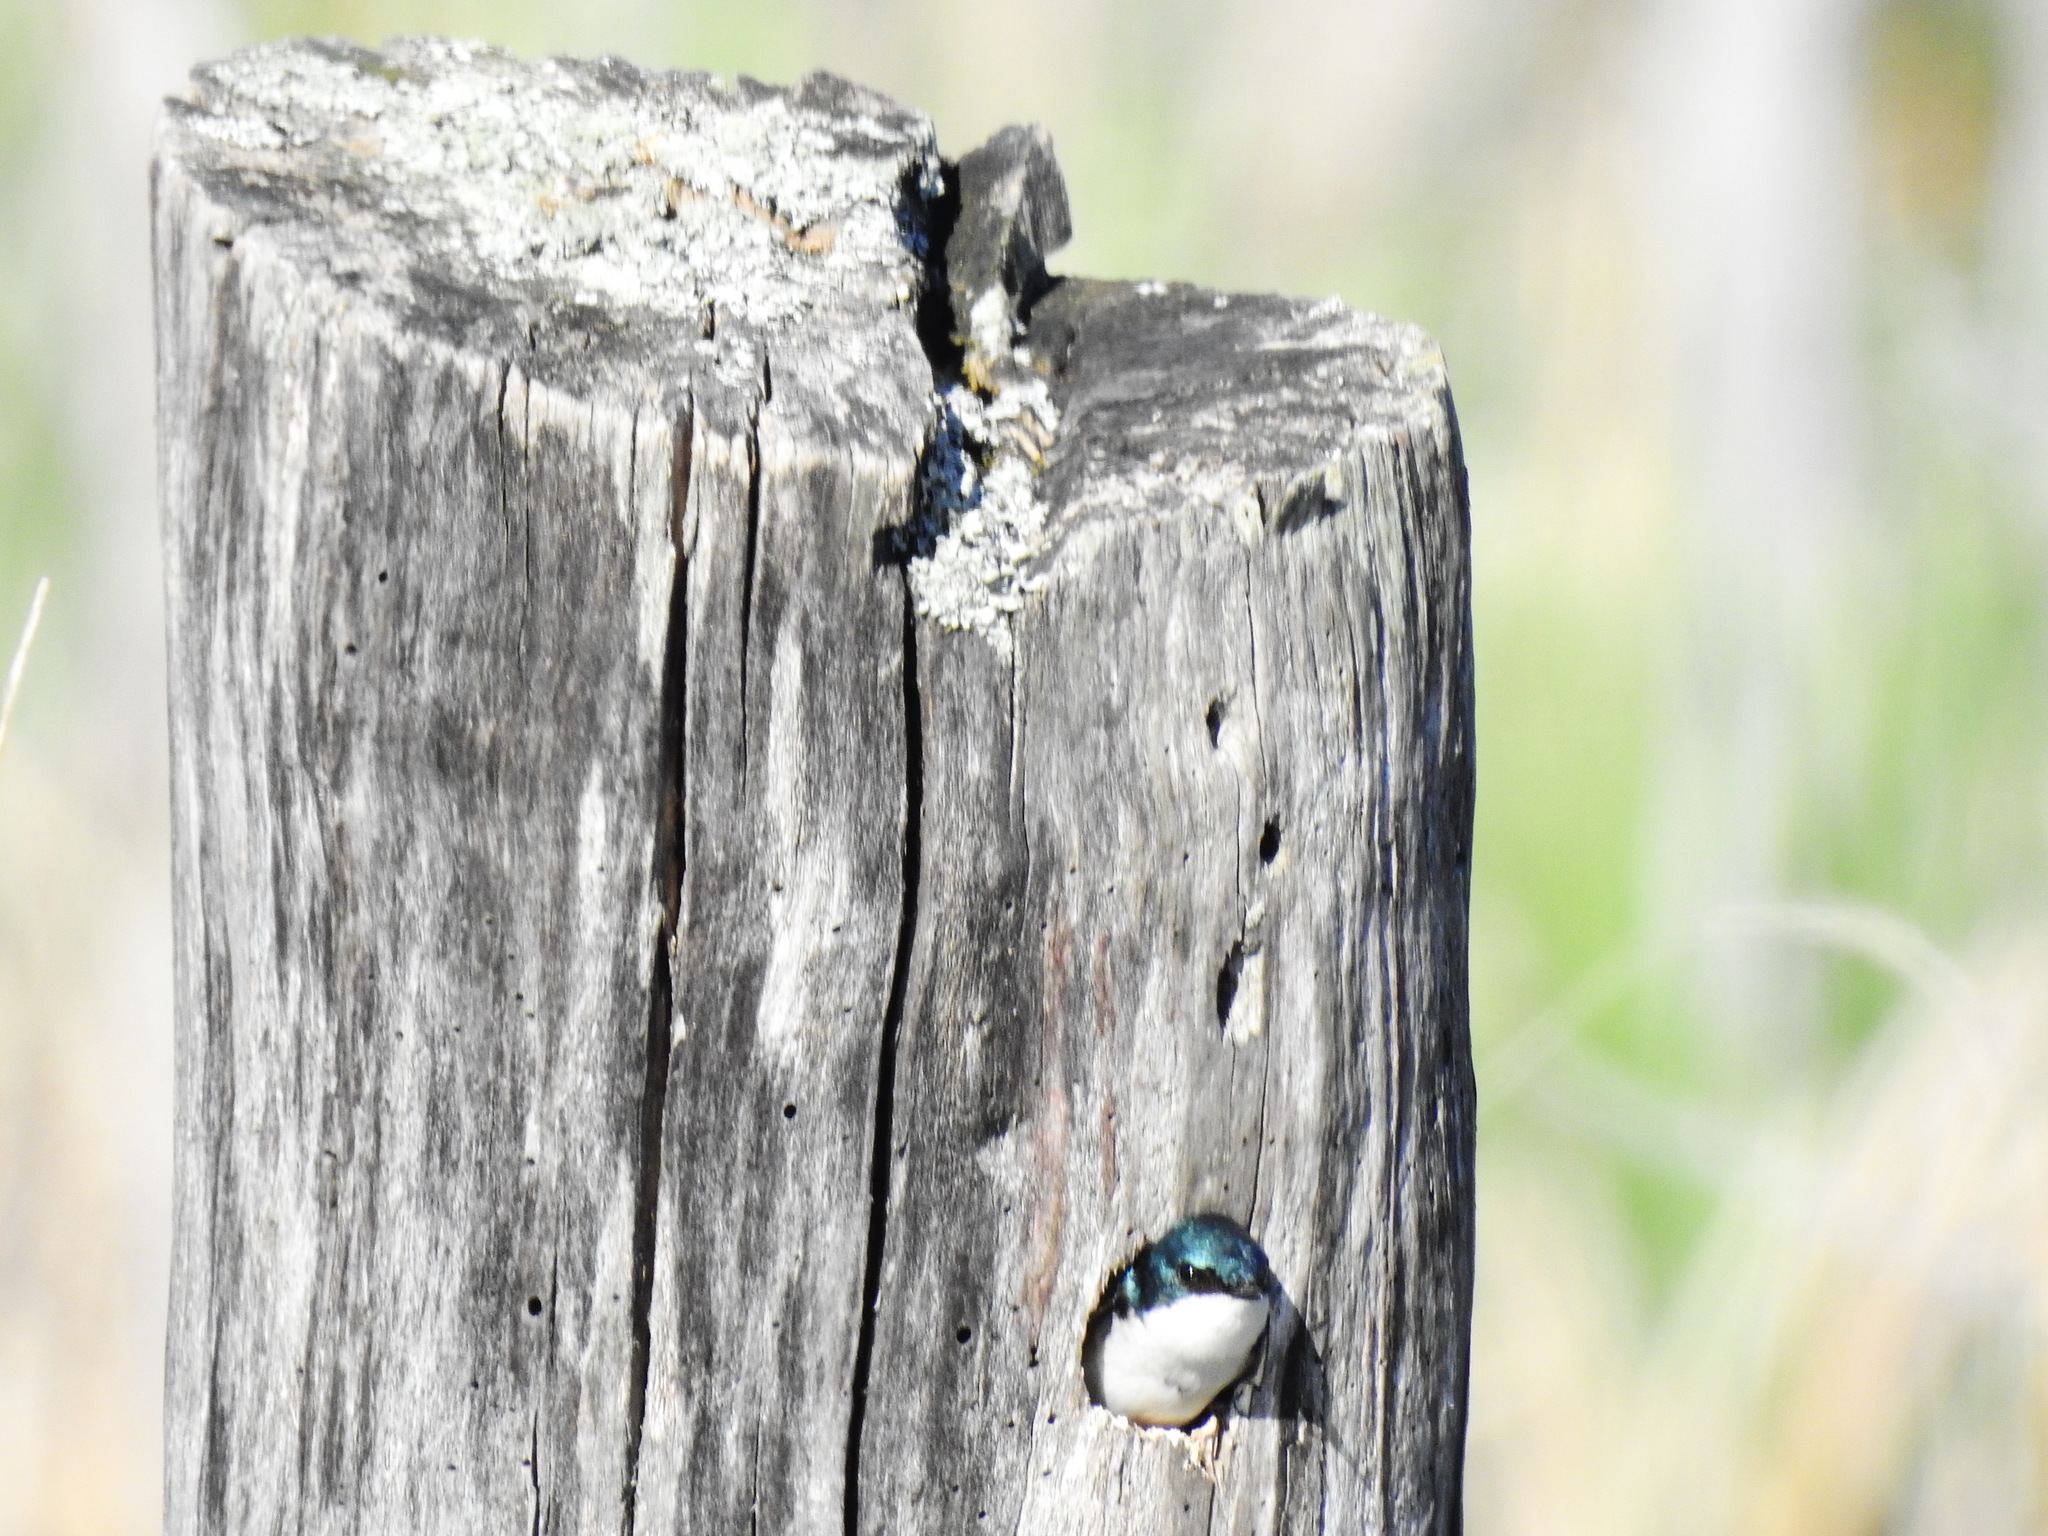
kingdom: Animalia
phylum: Chordata
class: Aves
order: Passeriformes
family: Hirundinidae
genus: Tachycineta
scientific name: Tachycineta bicolor
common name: Tree swallow
